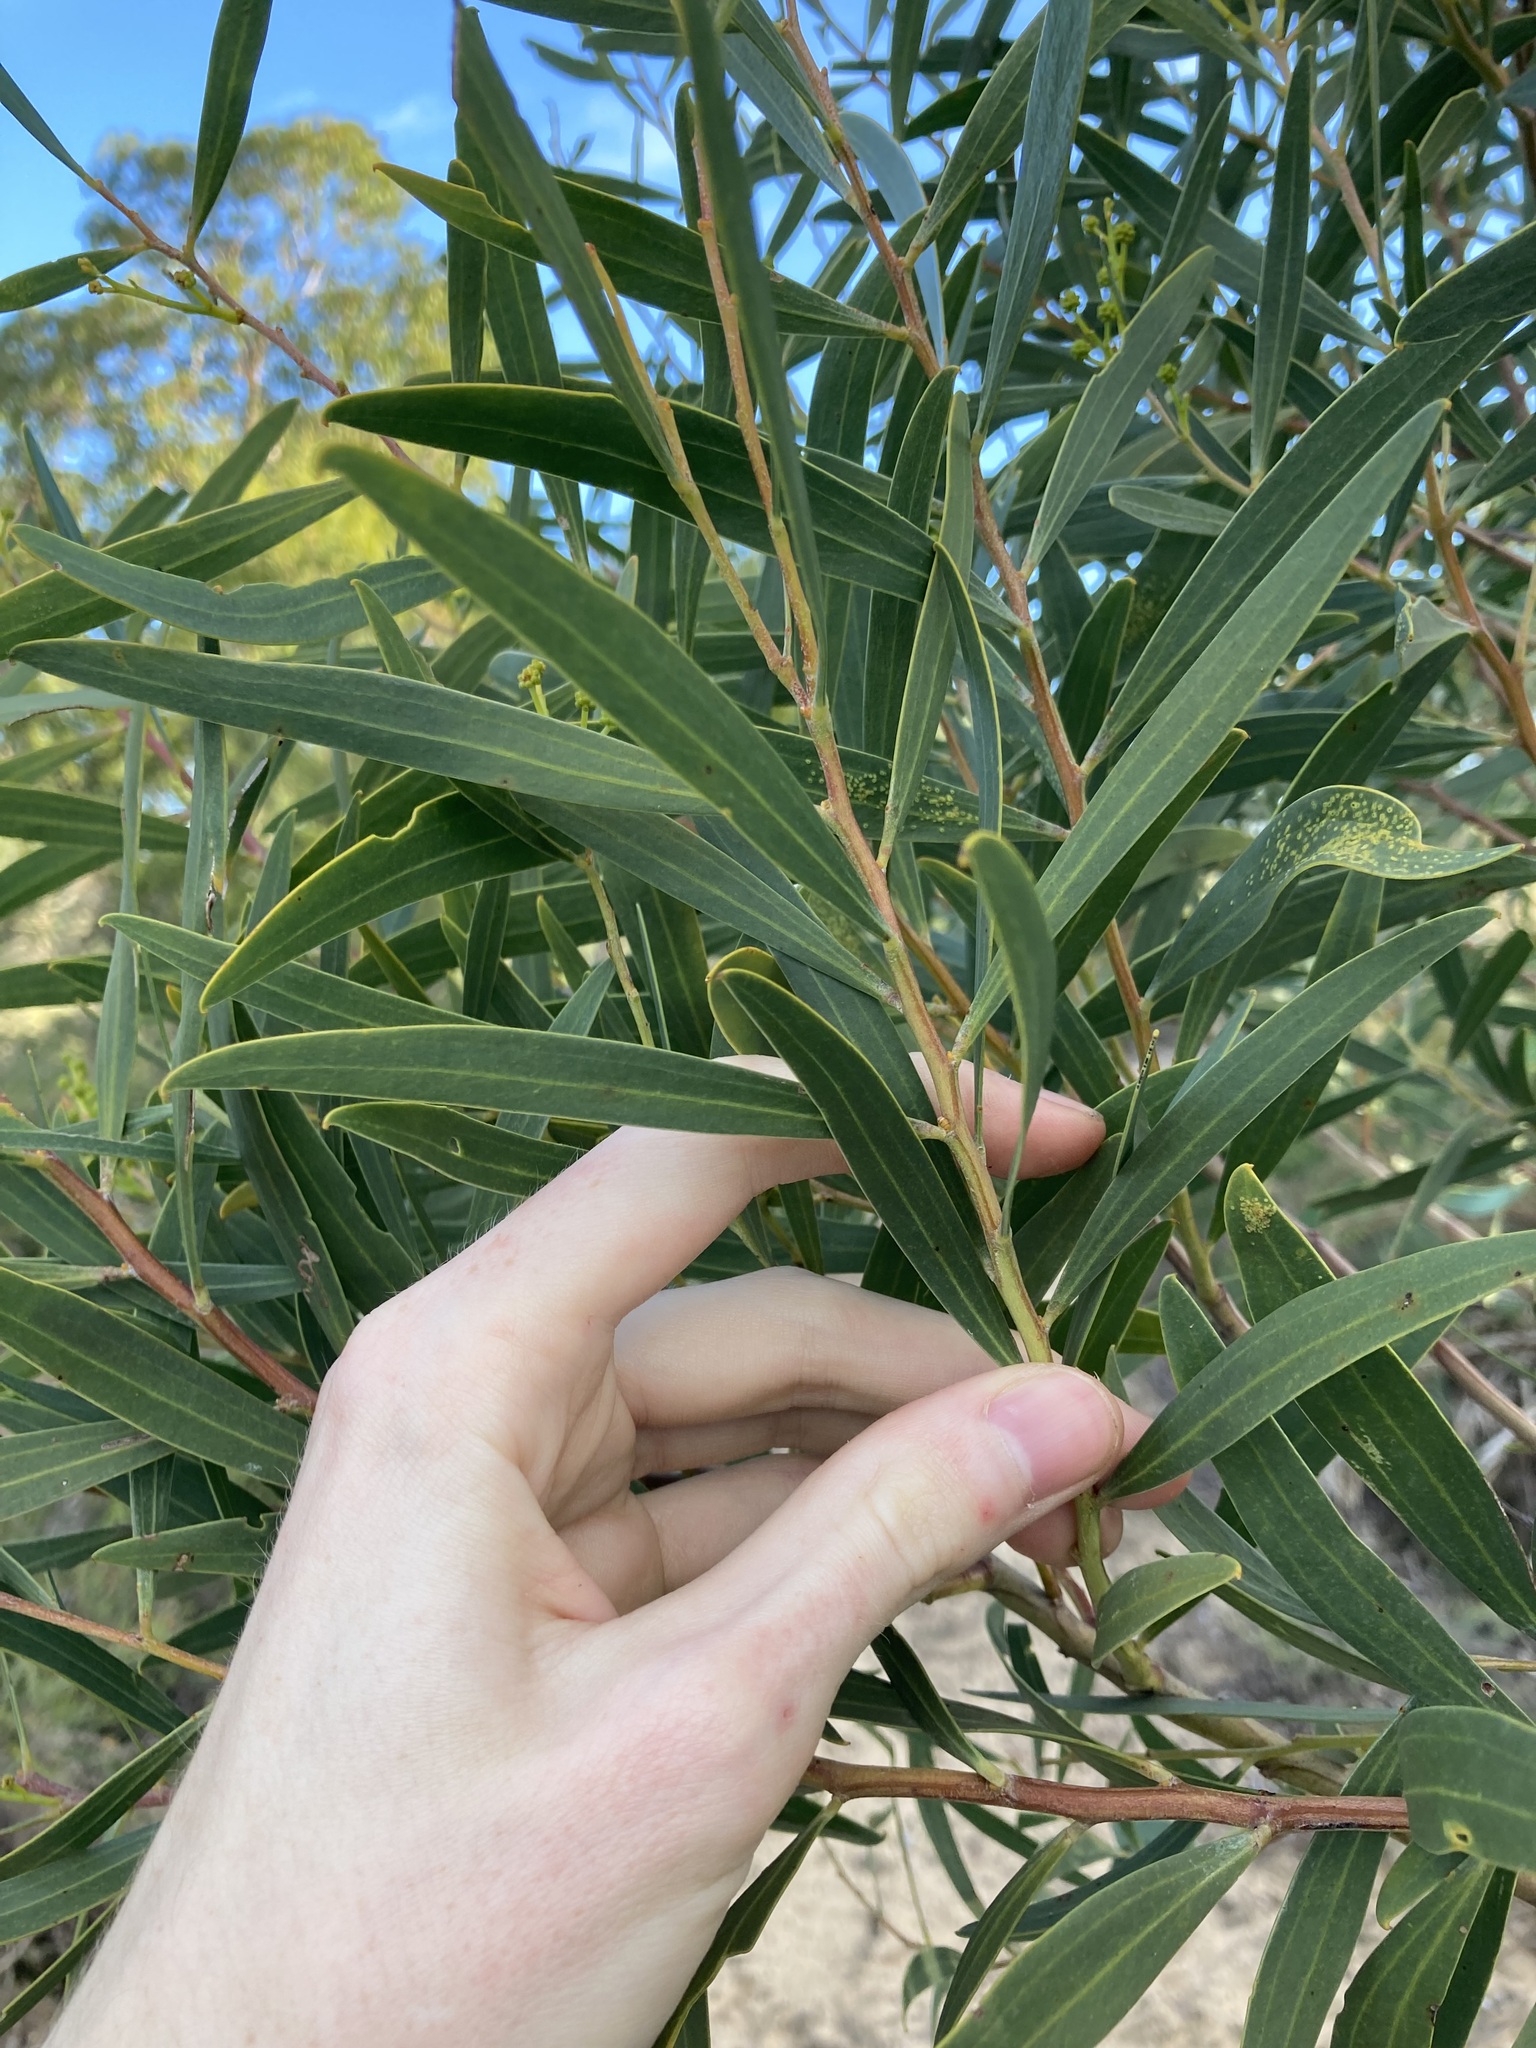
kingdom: Plantae
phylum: Tracheophyta
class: Magnoliopsida
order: Fabales
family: Fabaceae
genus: Acacia
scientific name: Acacia rostellifera
